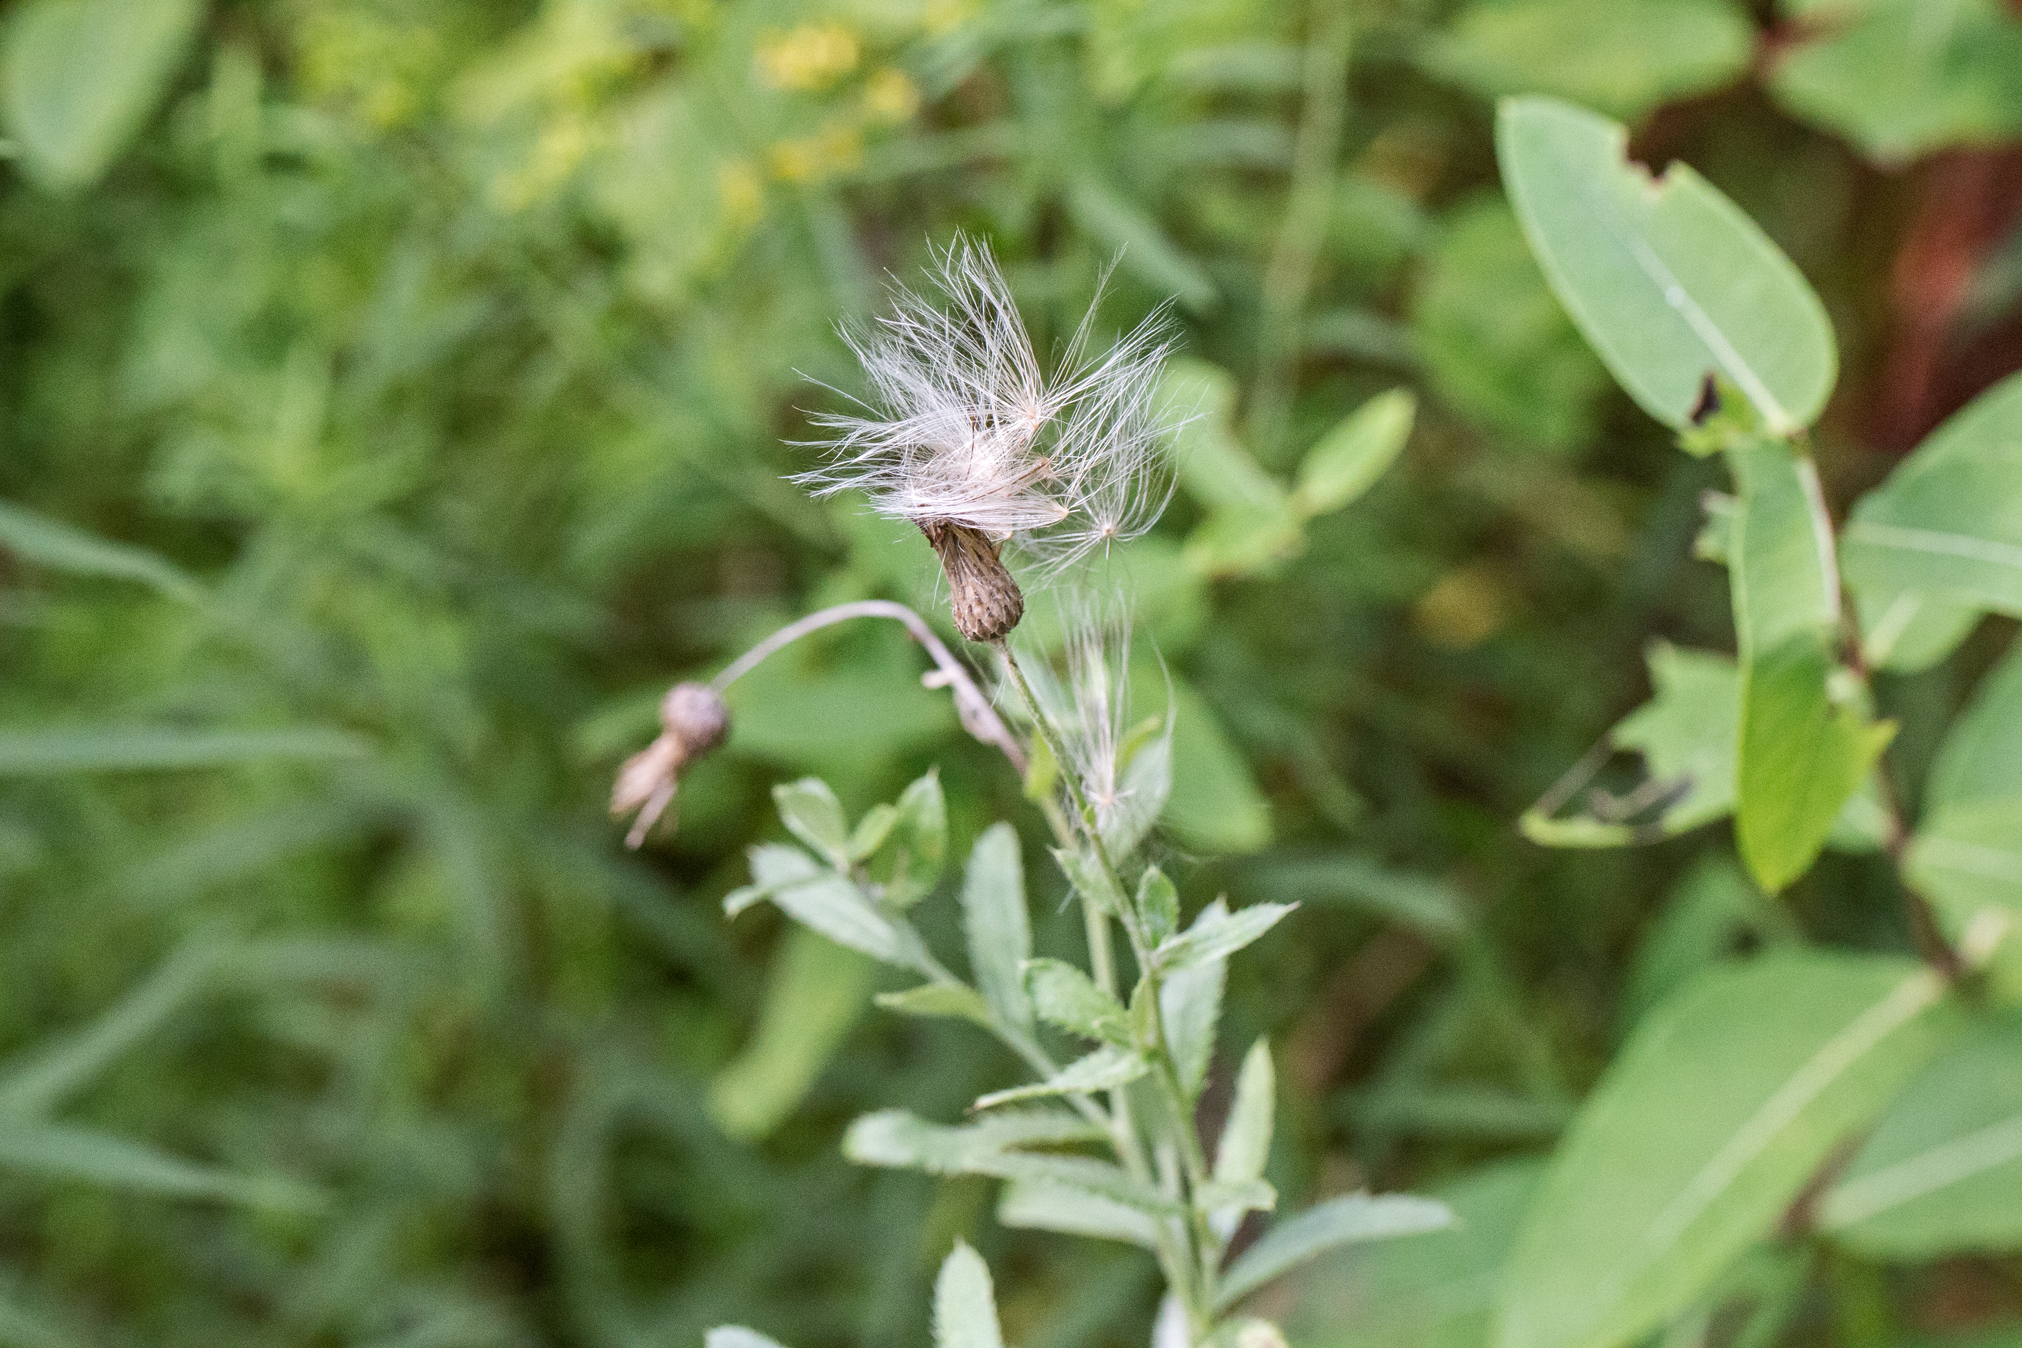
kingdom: Plantae
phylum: Tracheophyta
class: Magnoliopsida
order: Asterales
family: Asteraceae
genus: Cirsium
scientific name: Cirsium arvense
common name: Creeping thistle
